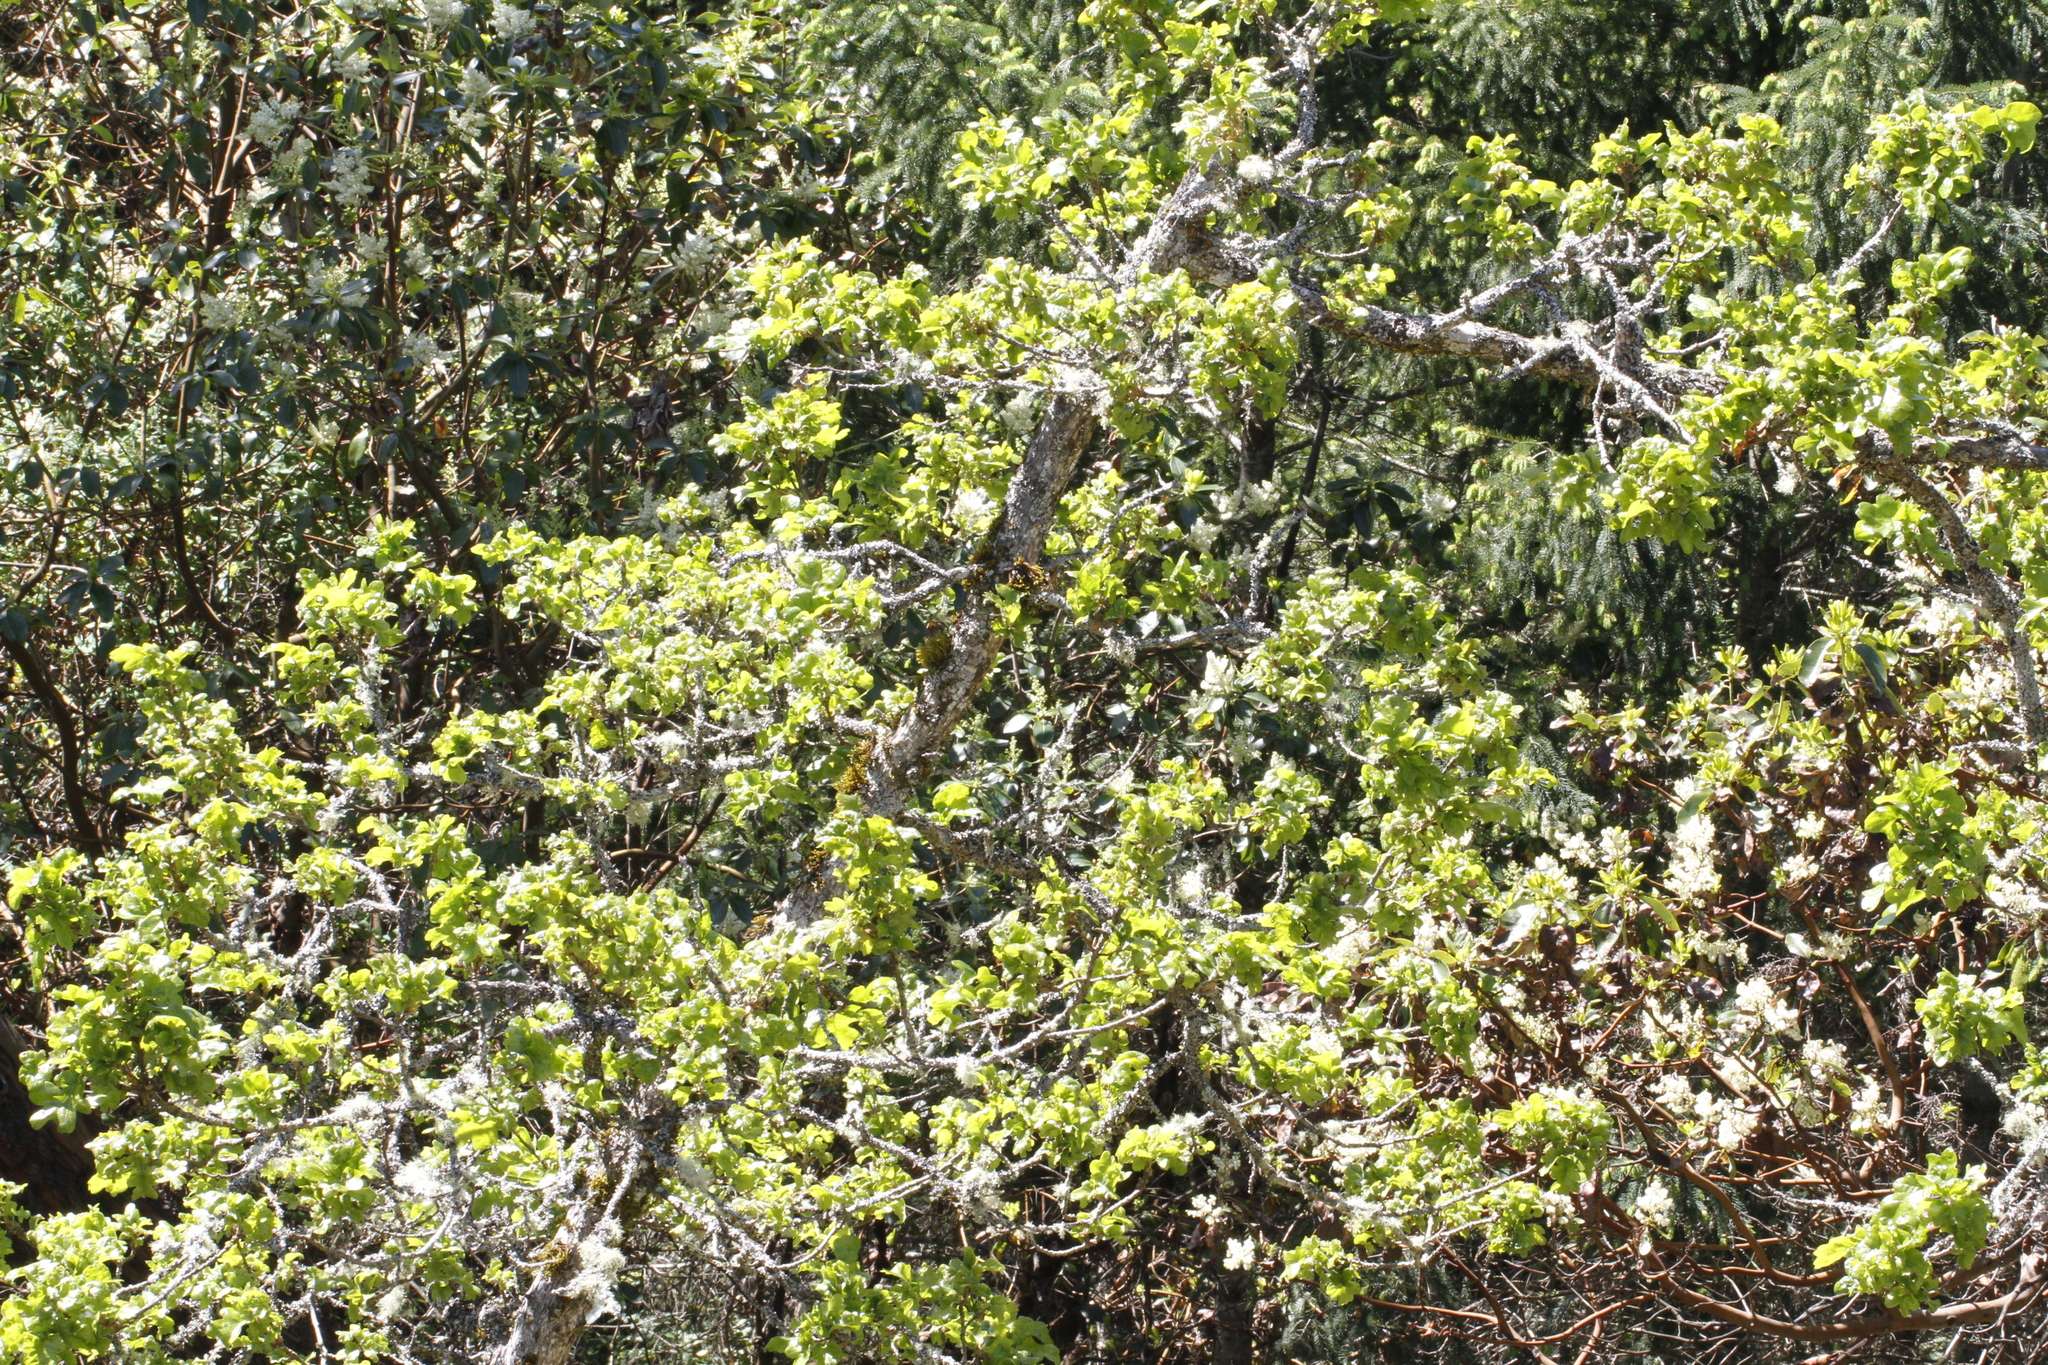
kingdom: Plantae
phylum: Tracheophyta
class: Magnoliopsida
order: Fagales
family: Fagaceae
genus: Quercus
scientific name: Quercus garryana
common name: Garry oak
